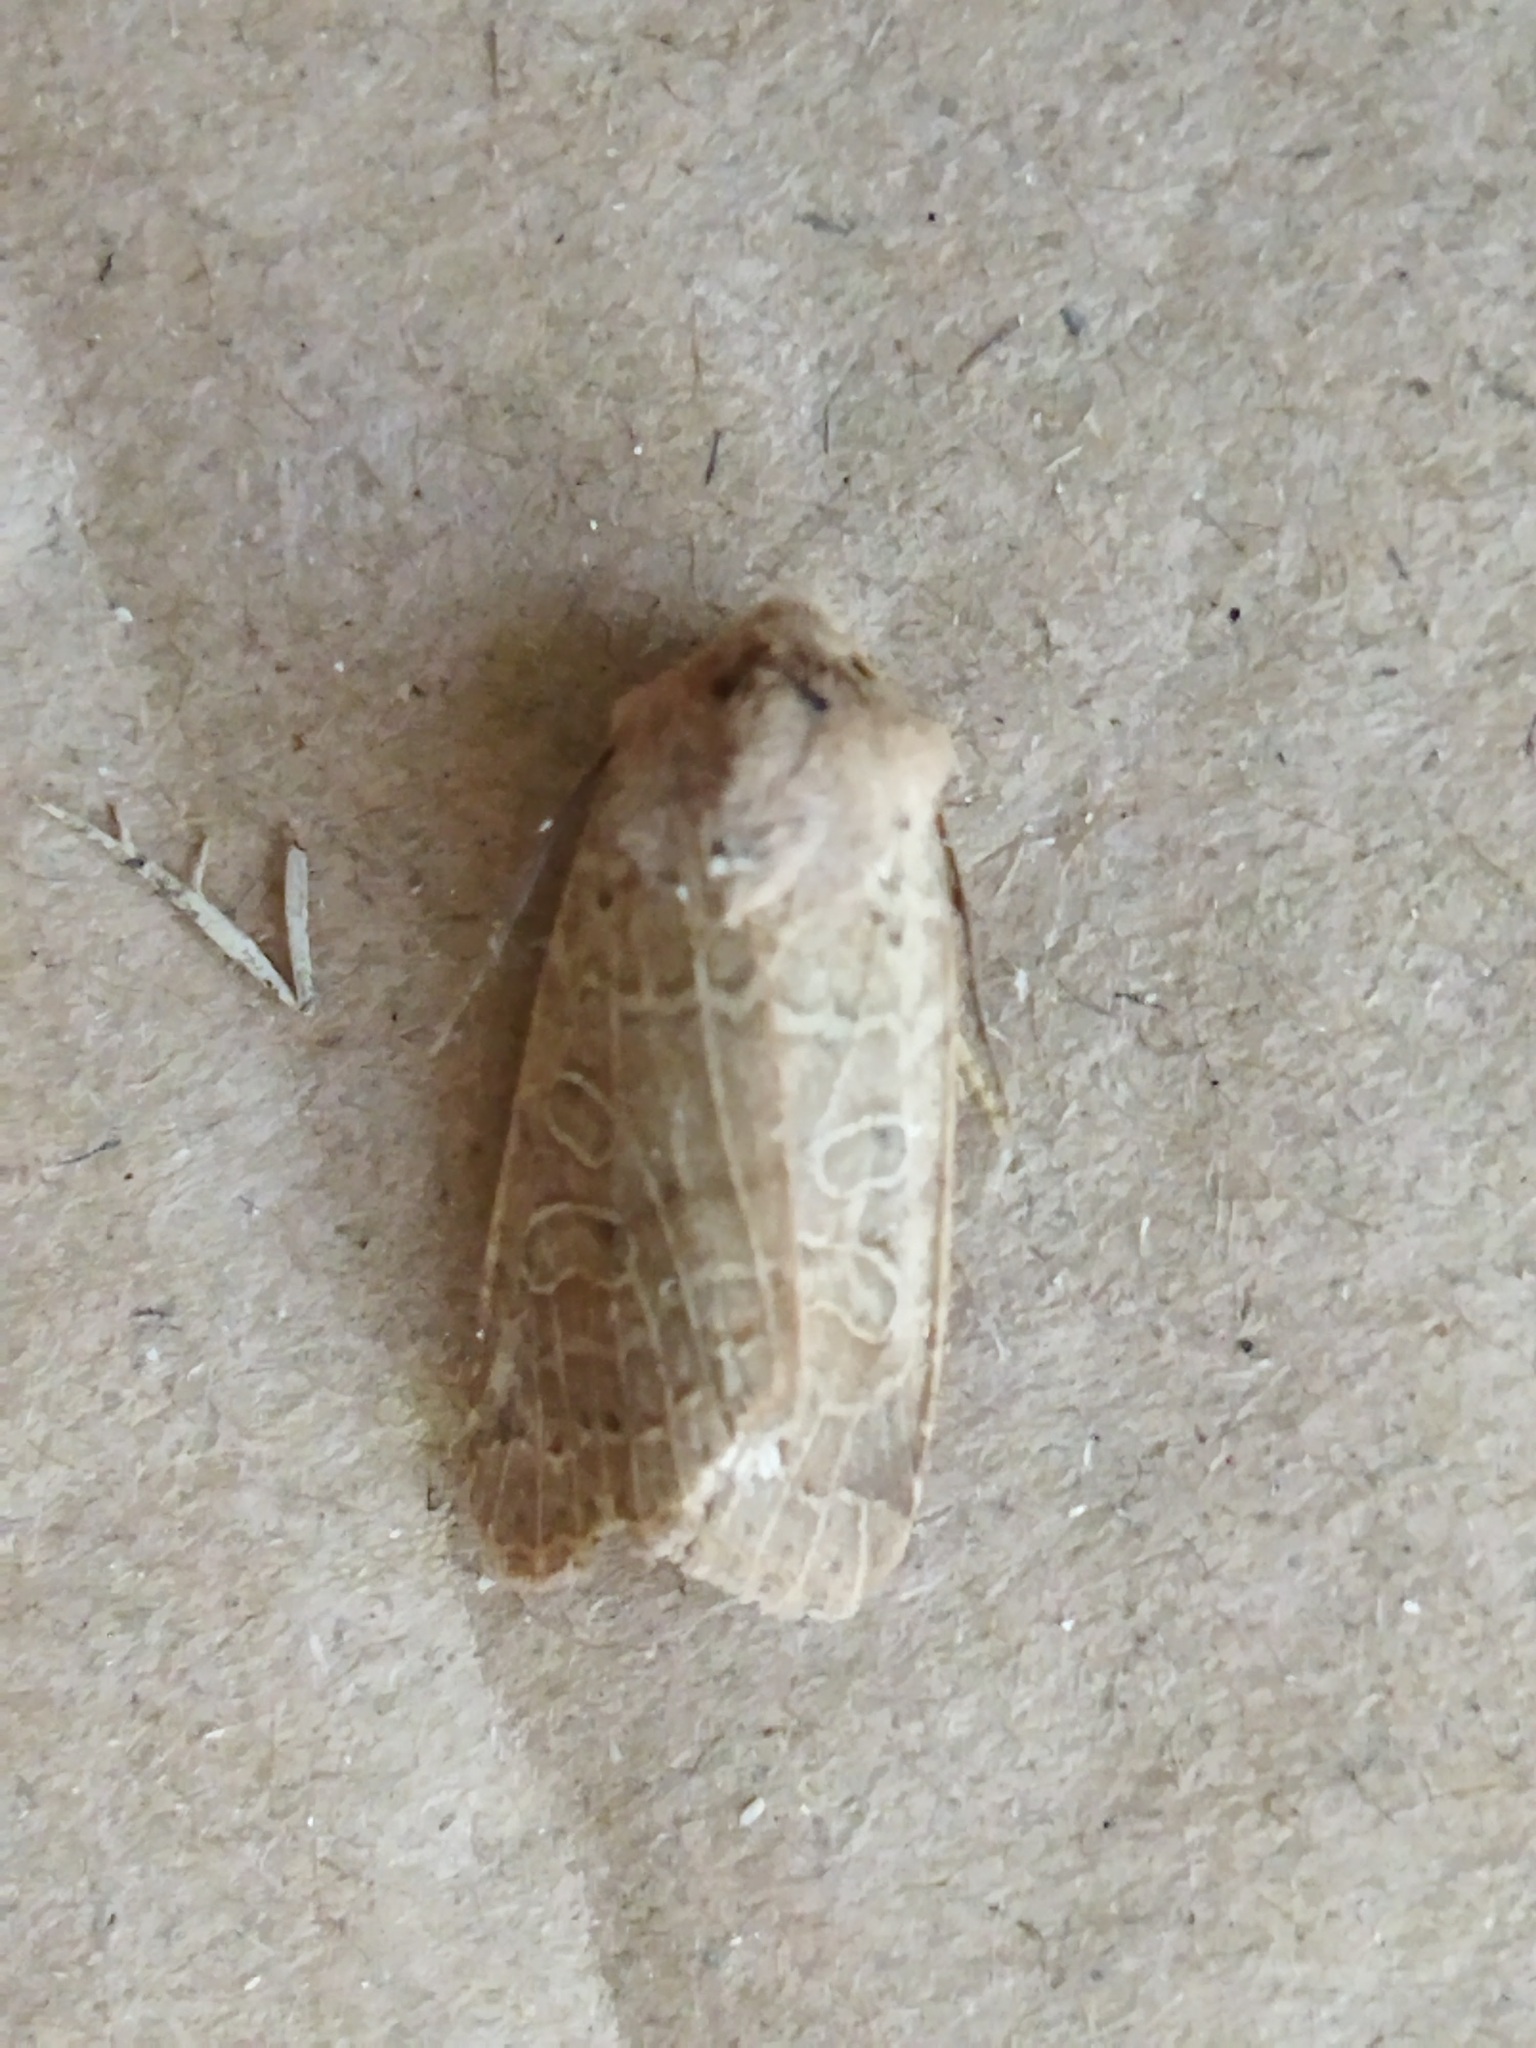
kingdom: Animalia
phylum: Arthropoda
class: Insecta
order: Lepidoptera
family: Noctuidae
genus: Agrochola
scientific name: Agrochola osthelderi
